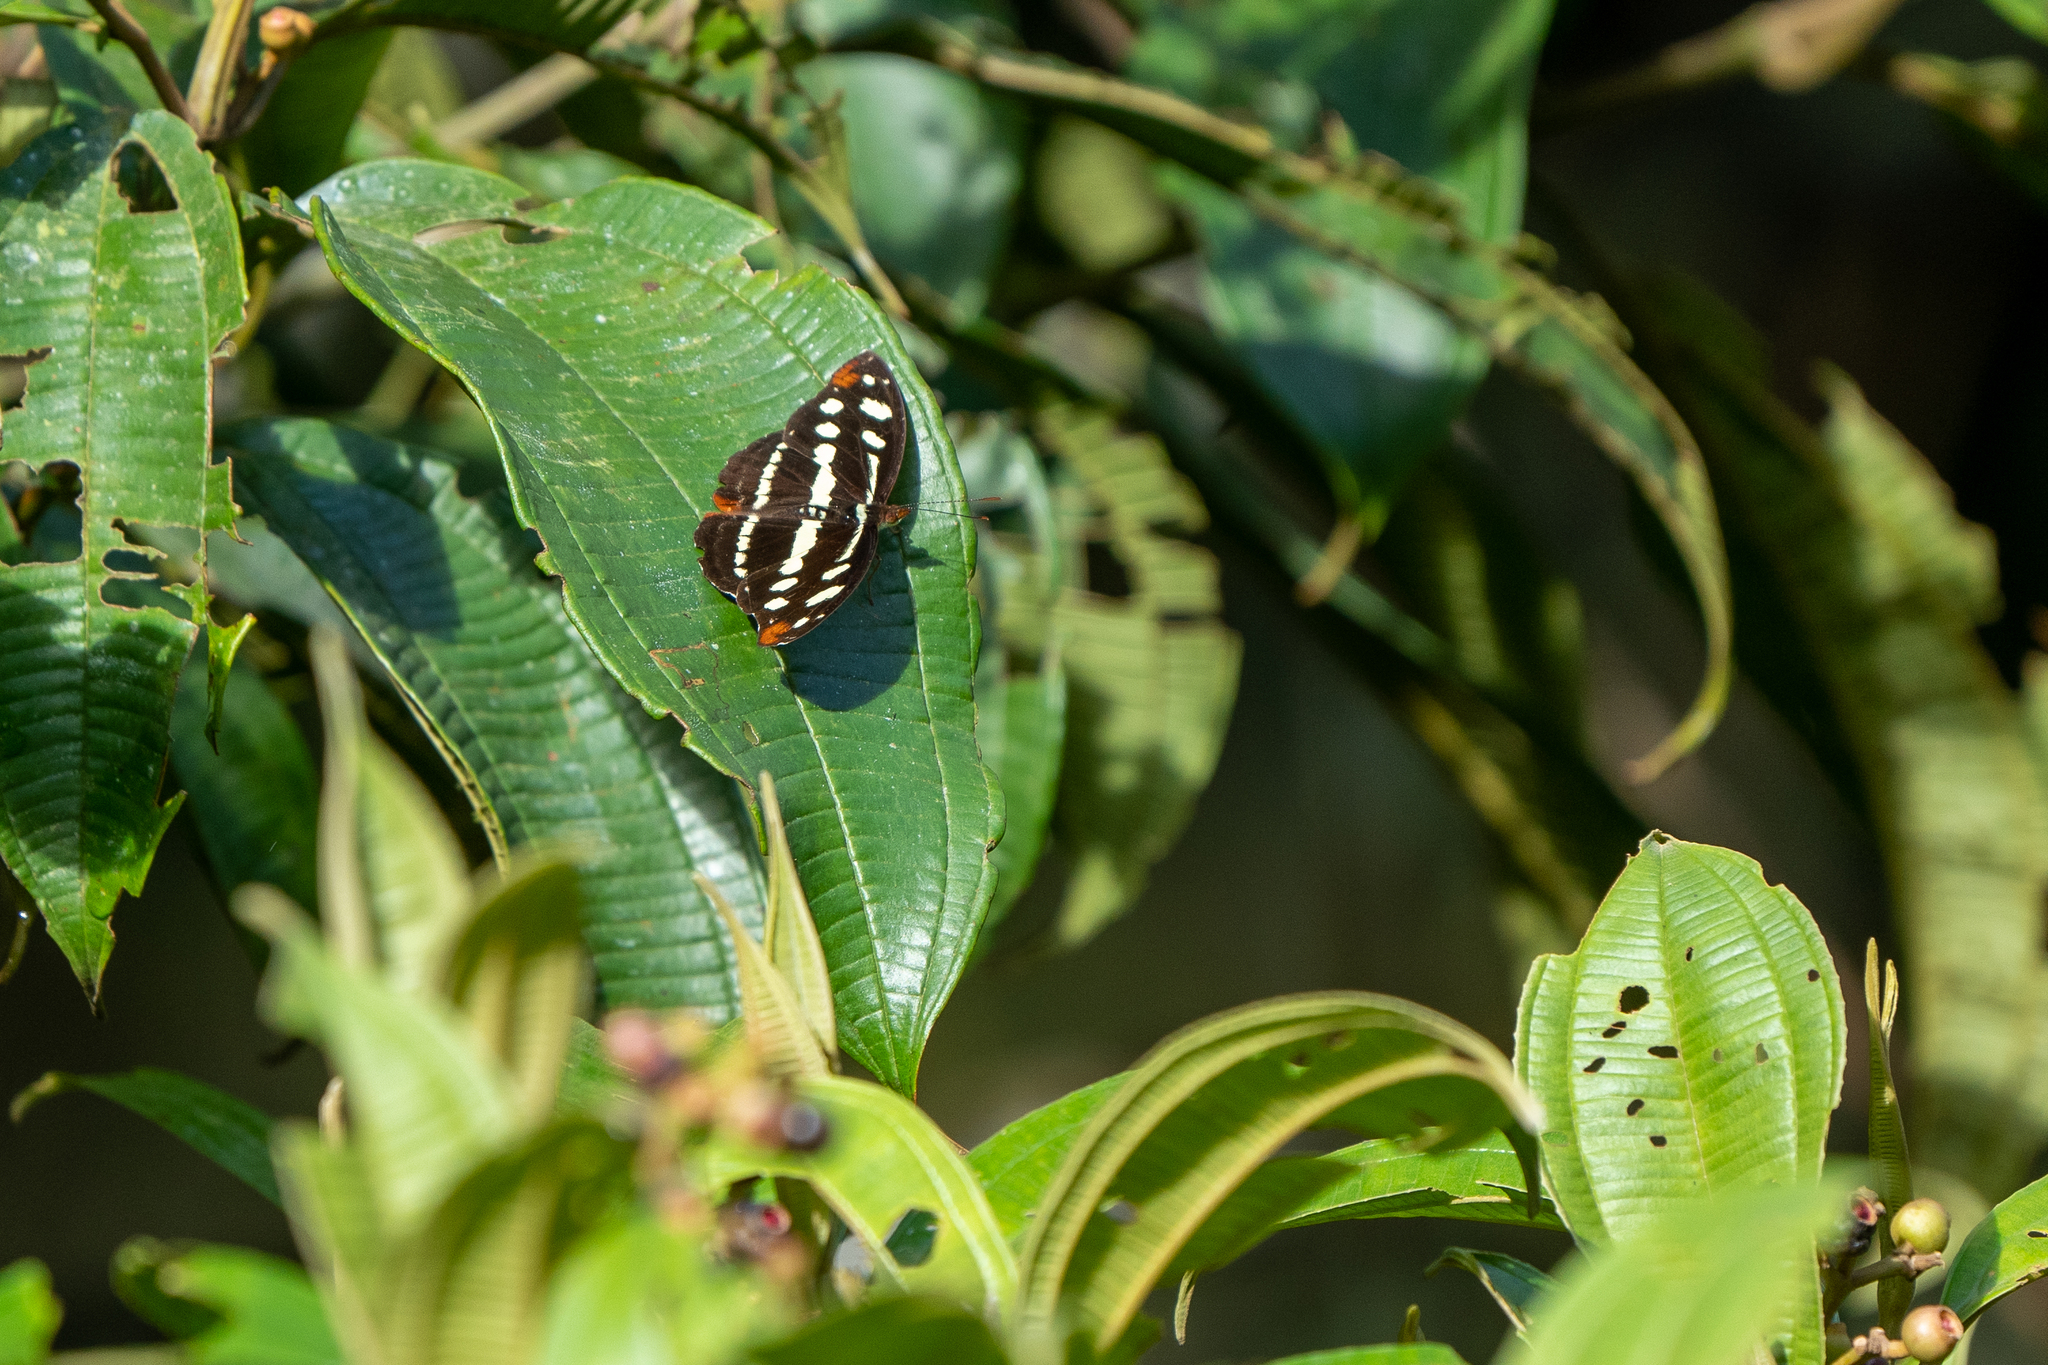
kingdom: Animalia
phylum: Arthropoda
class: Insecta
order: Lepidoptera
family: Nymphalidae
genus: Catonephele
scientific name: Catonephele mexicana
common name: Guatemalan catone
